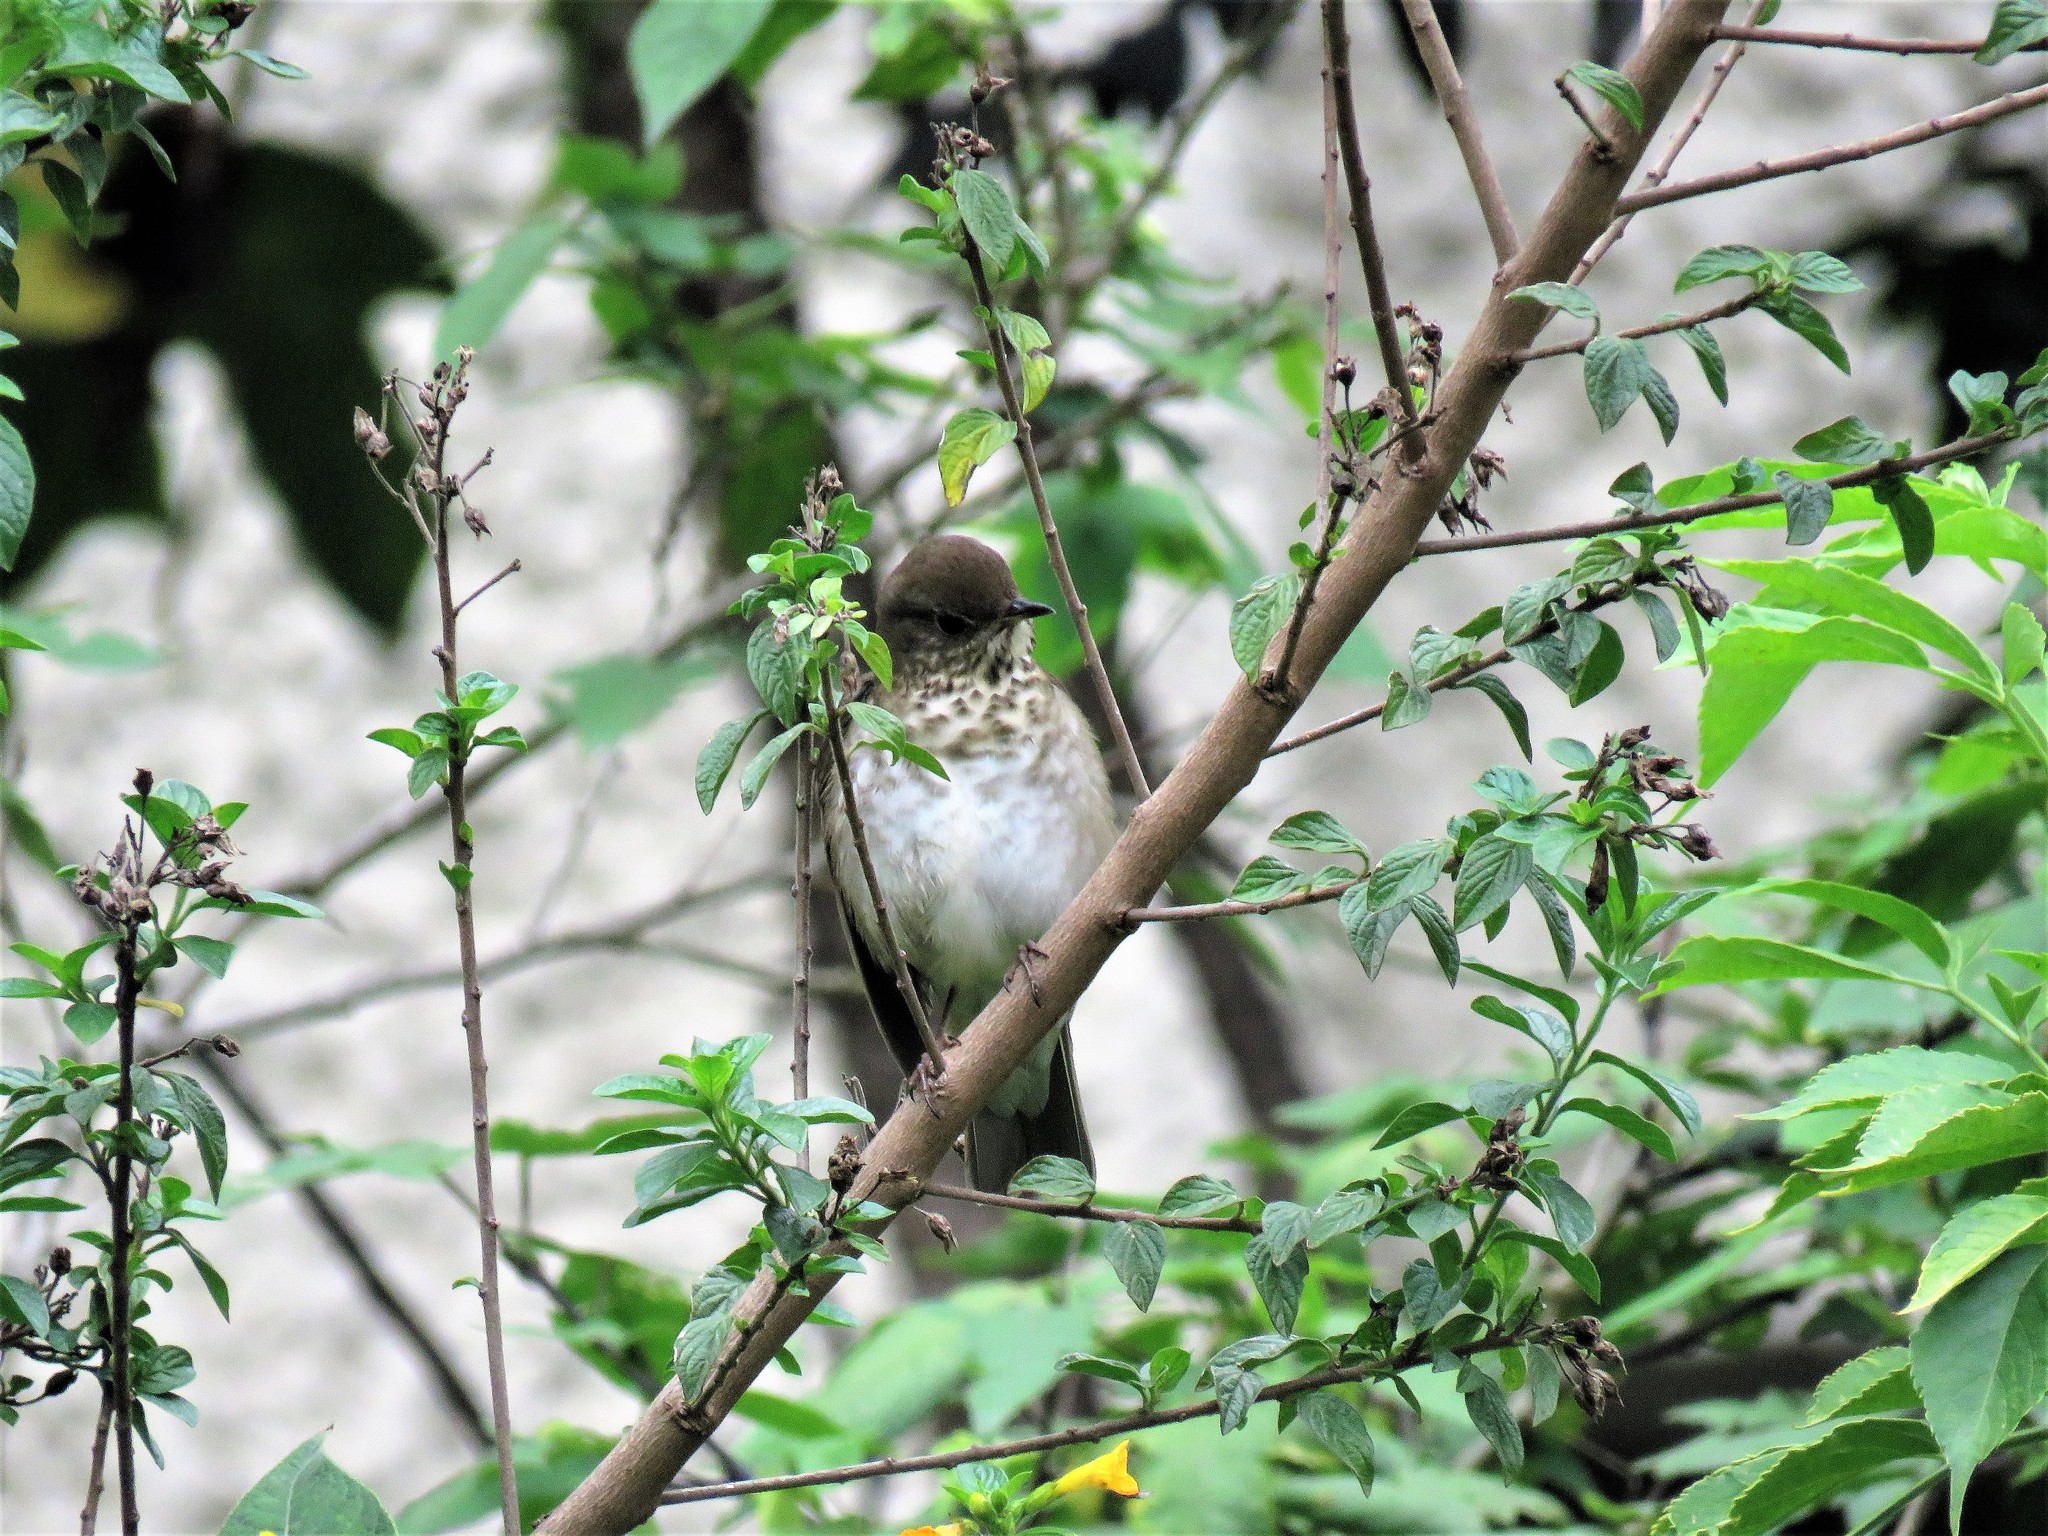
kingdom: Animalia
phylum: Chordata
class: Aves
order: Passeriformes
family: Turdidae
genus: Catharus
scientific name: Catharus minimus
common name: Grey-cheeked thrush
